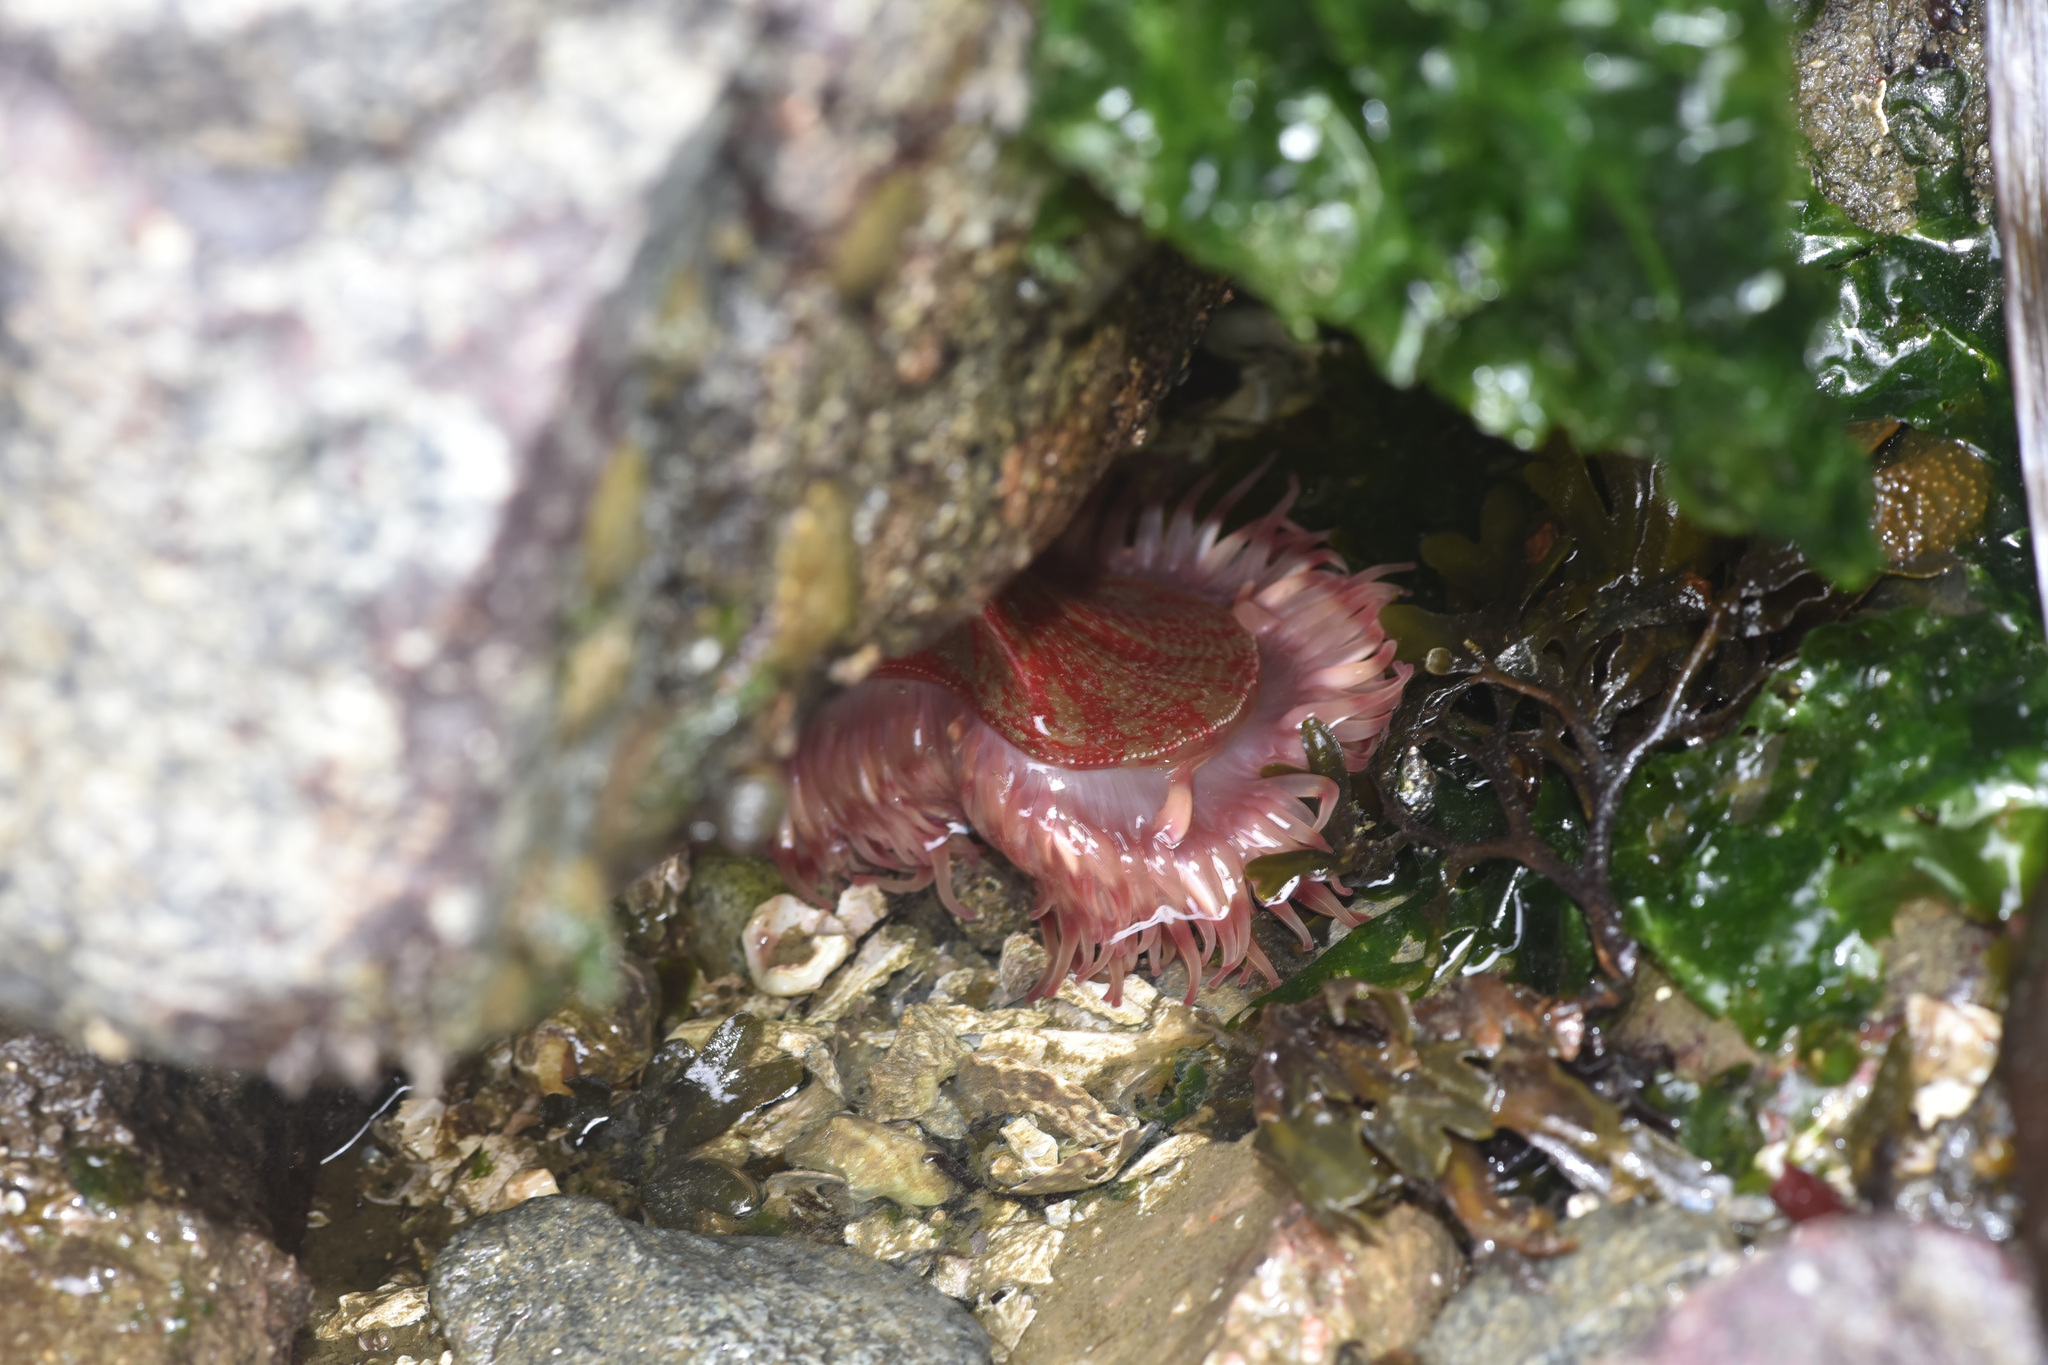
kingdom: Animalia
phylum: Cnidaria
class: Anthozoa
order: Actiniaria
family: Actiniidae
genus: Urticina
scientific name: Urticina grebelnyi
